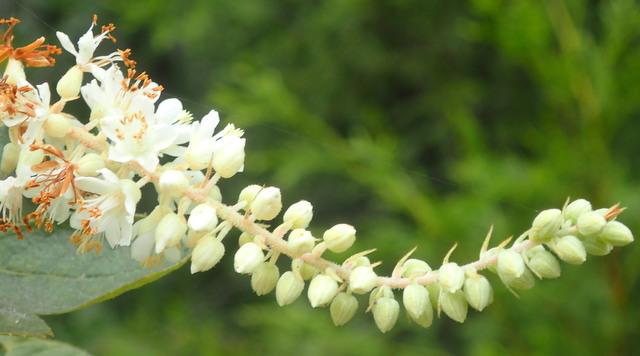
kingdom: Plantae
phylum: Tracheophyta
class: Magnoliopsida
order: Ericales
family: Clethraceae
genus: Clethra
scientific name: Clethra tomentosa
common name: Downy sweet pepperbush
